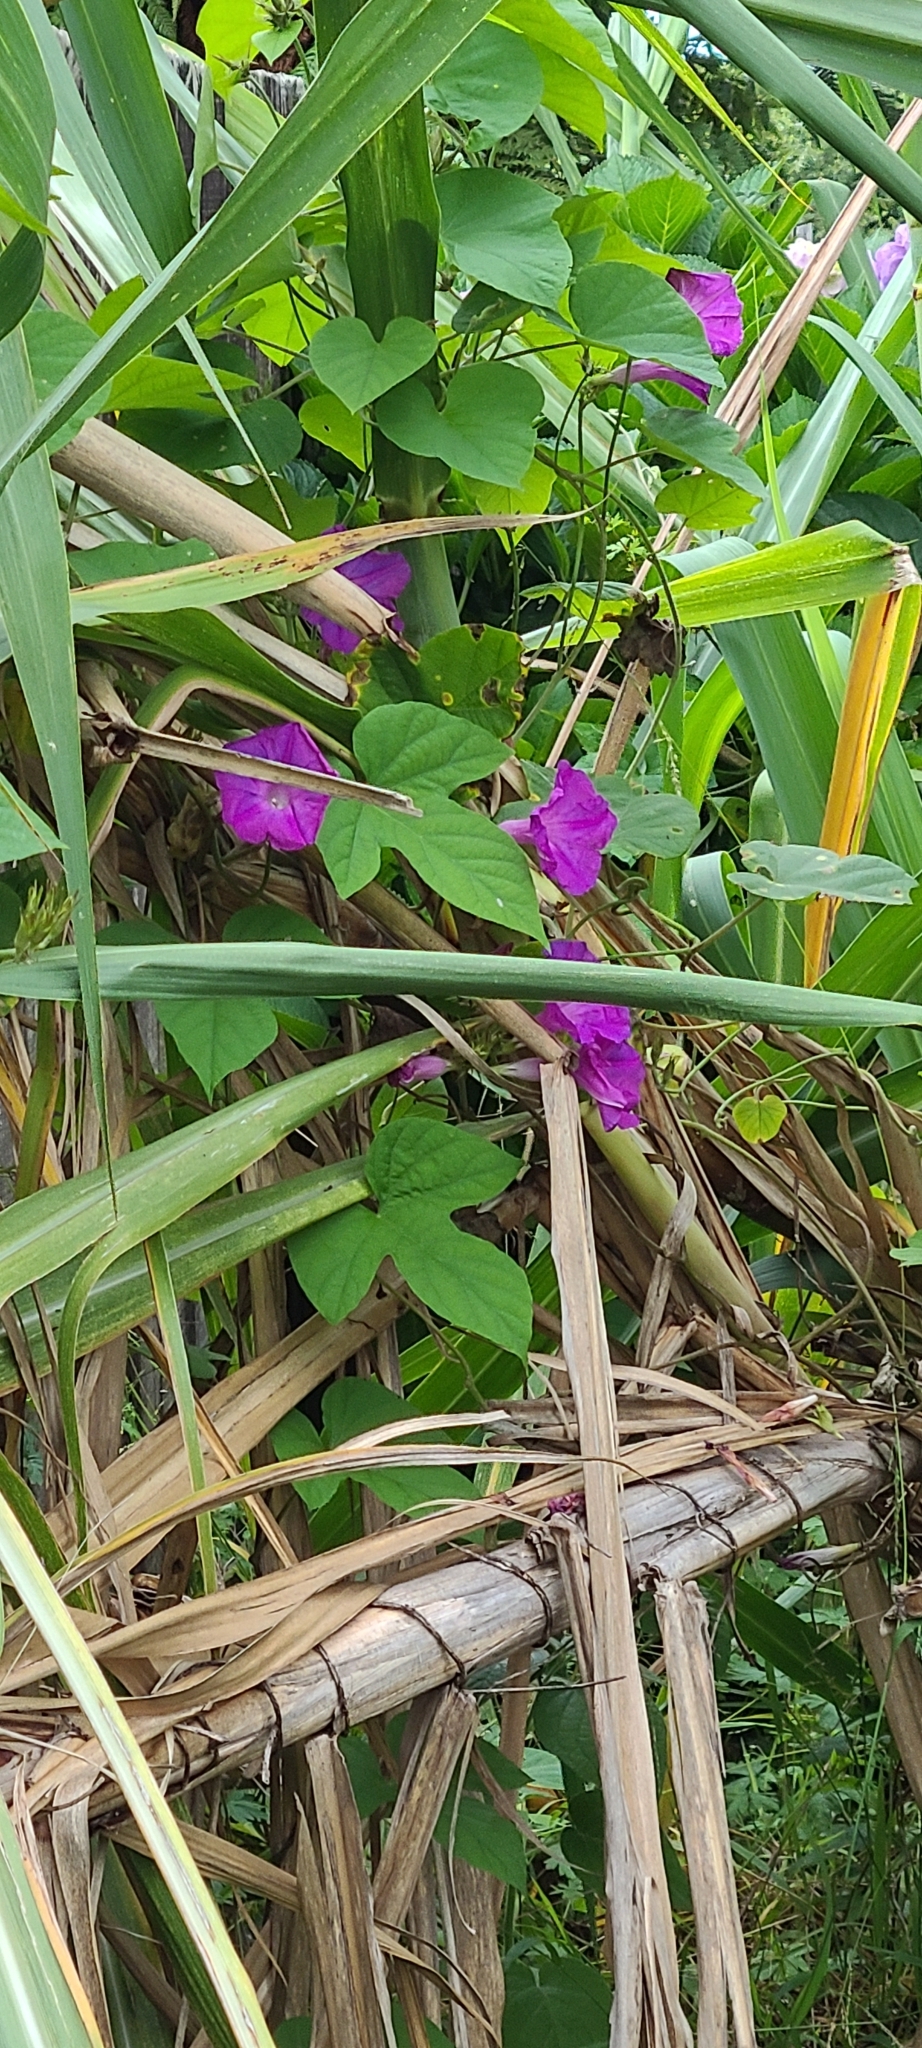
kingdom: Plantae
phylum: Tracheophyta
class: Magnoliopsida
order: Solanales
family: Convolvulaceae
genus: Ipomoea
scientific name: Ipomoea indica
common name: Blue dawnflower
